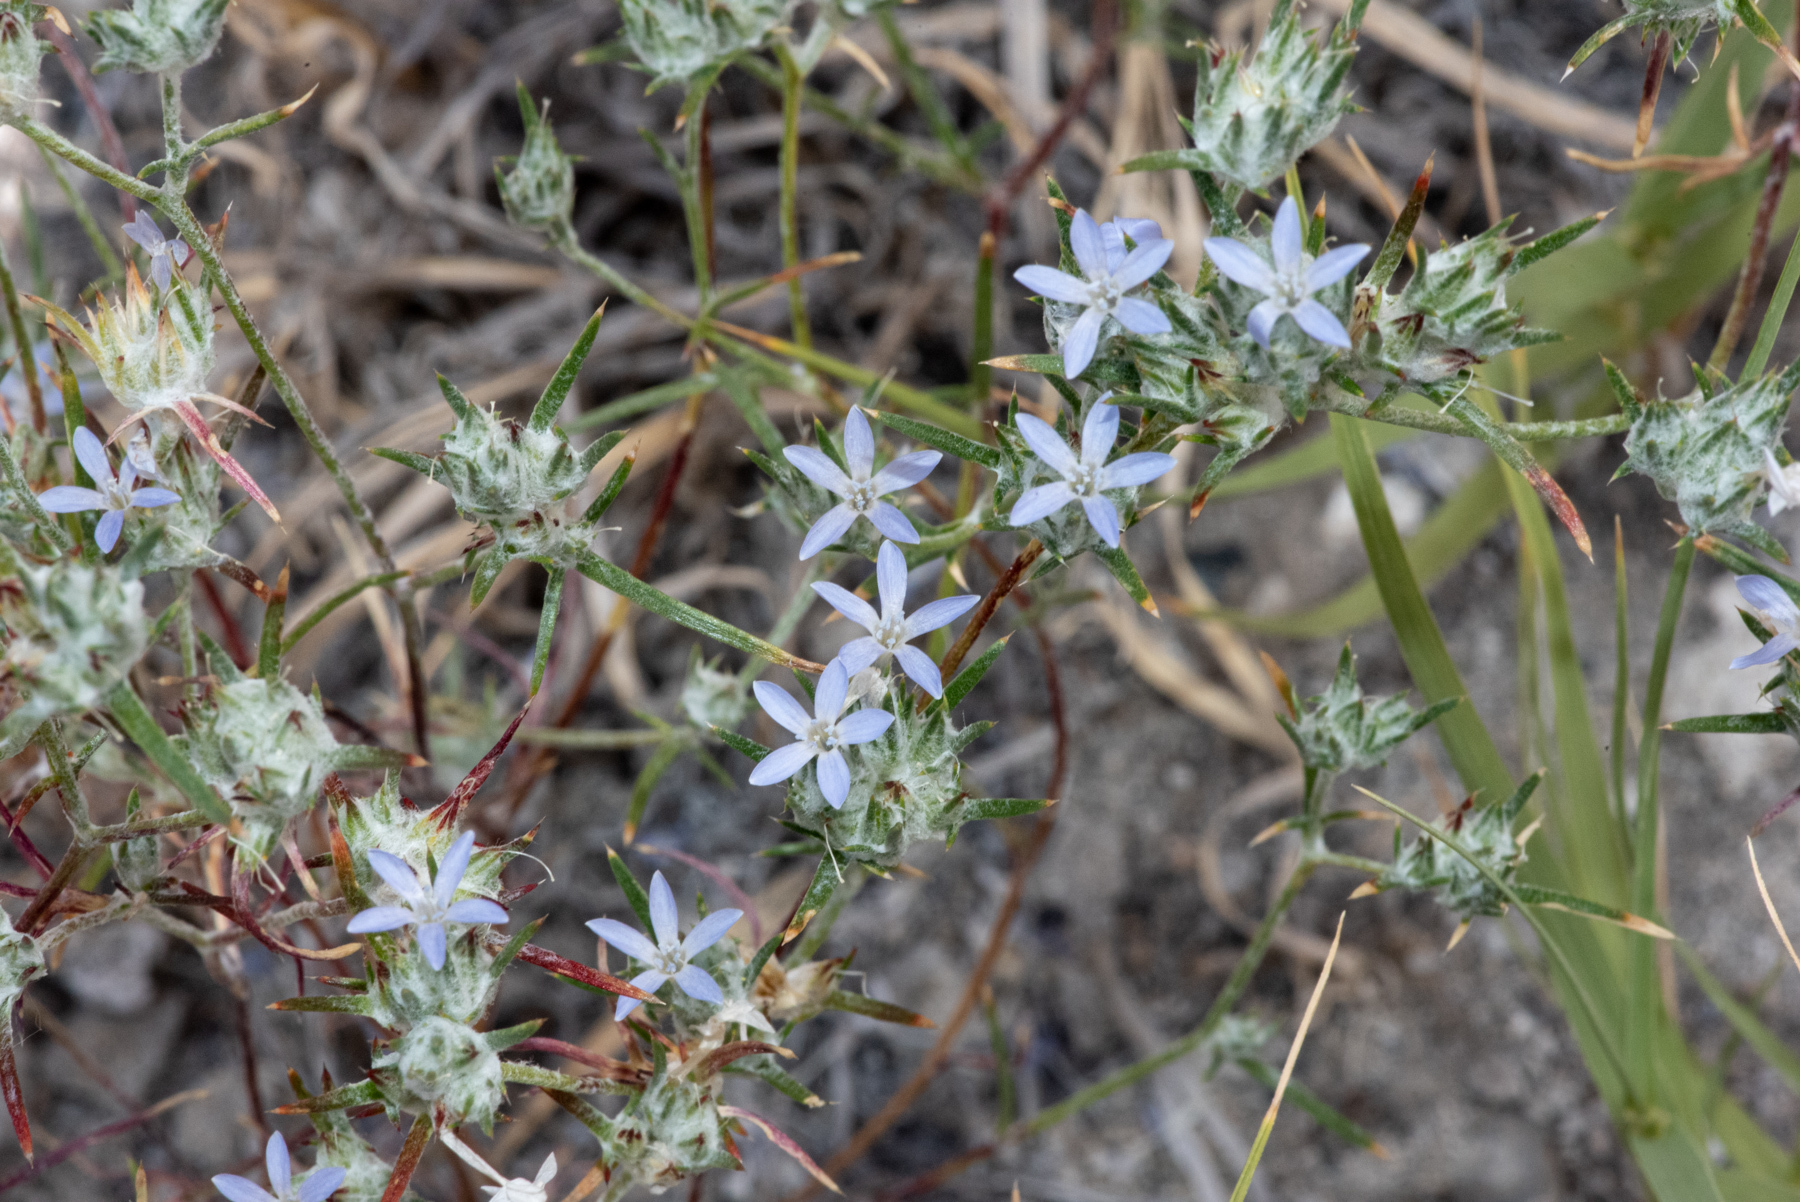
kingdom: Plantae
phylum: Tracheophyta
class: Magnoliopsida
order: Ericales
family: Polemoniaceae
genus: Eriastrum
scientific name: Eriastrum wilcoxii
